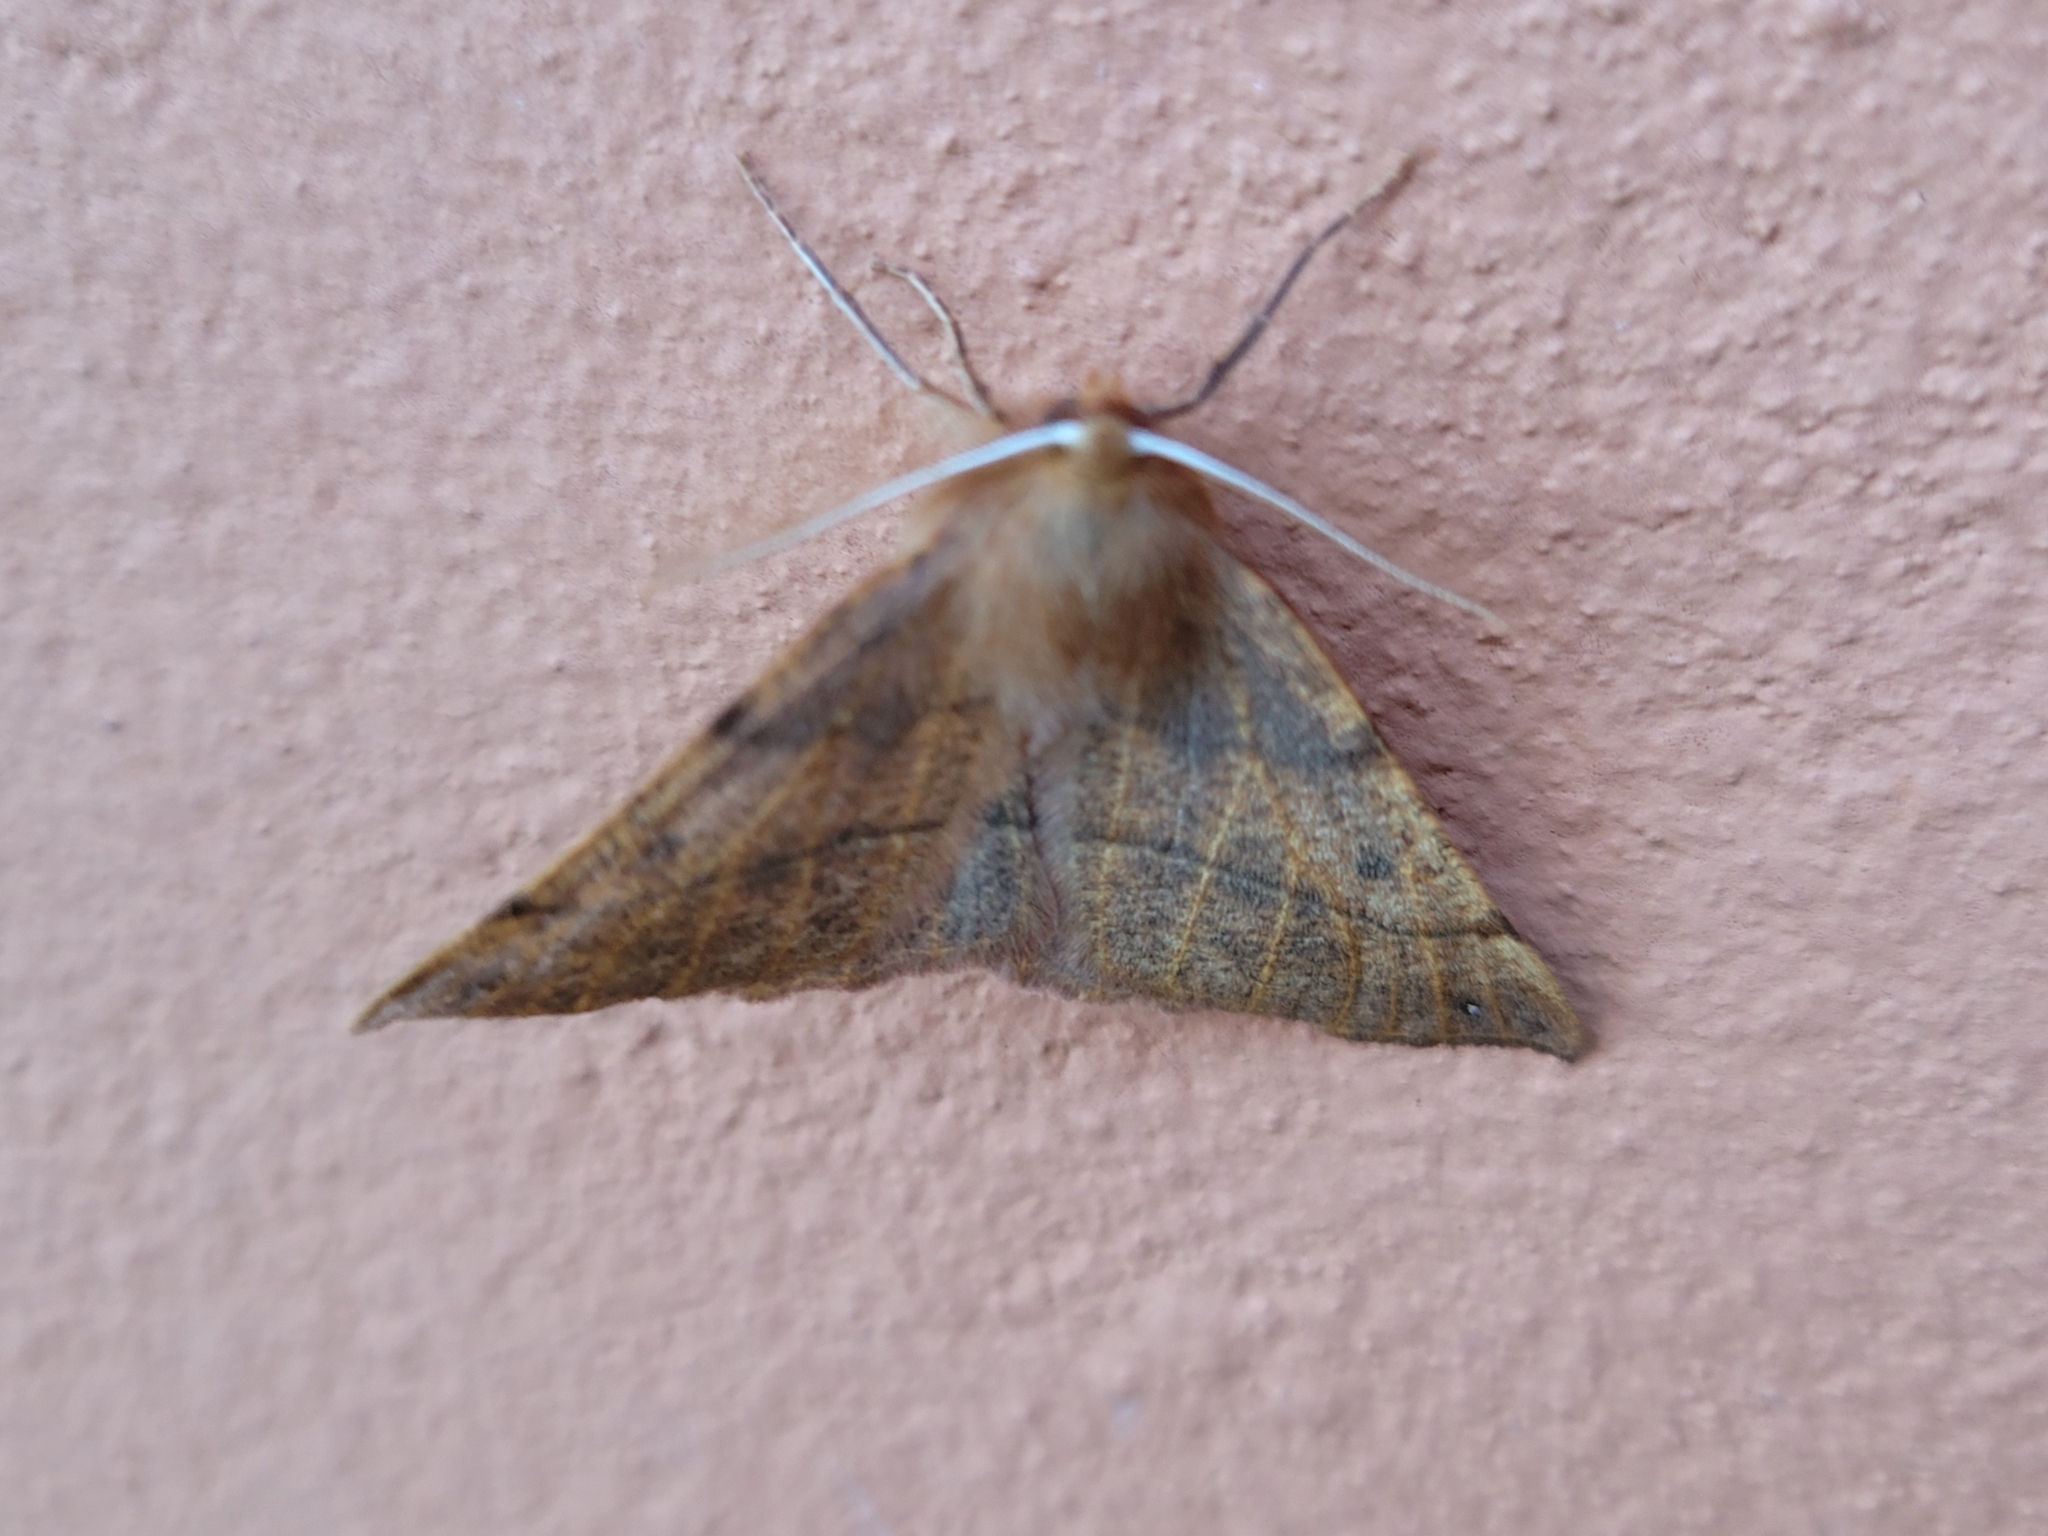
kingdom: Animalia
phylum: Arthropoda
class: Insecta
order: Lepidoptera
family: Geometridae
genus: Colotois
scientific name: Colotois pennaria
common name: Feathered thorn
